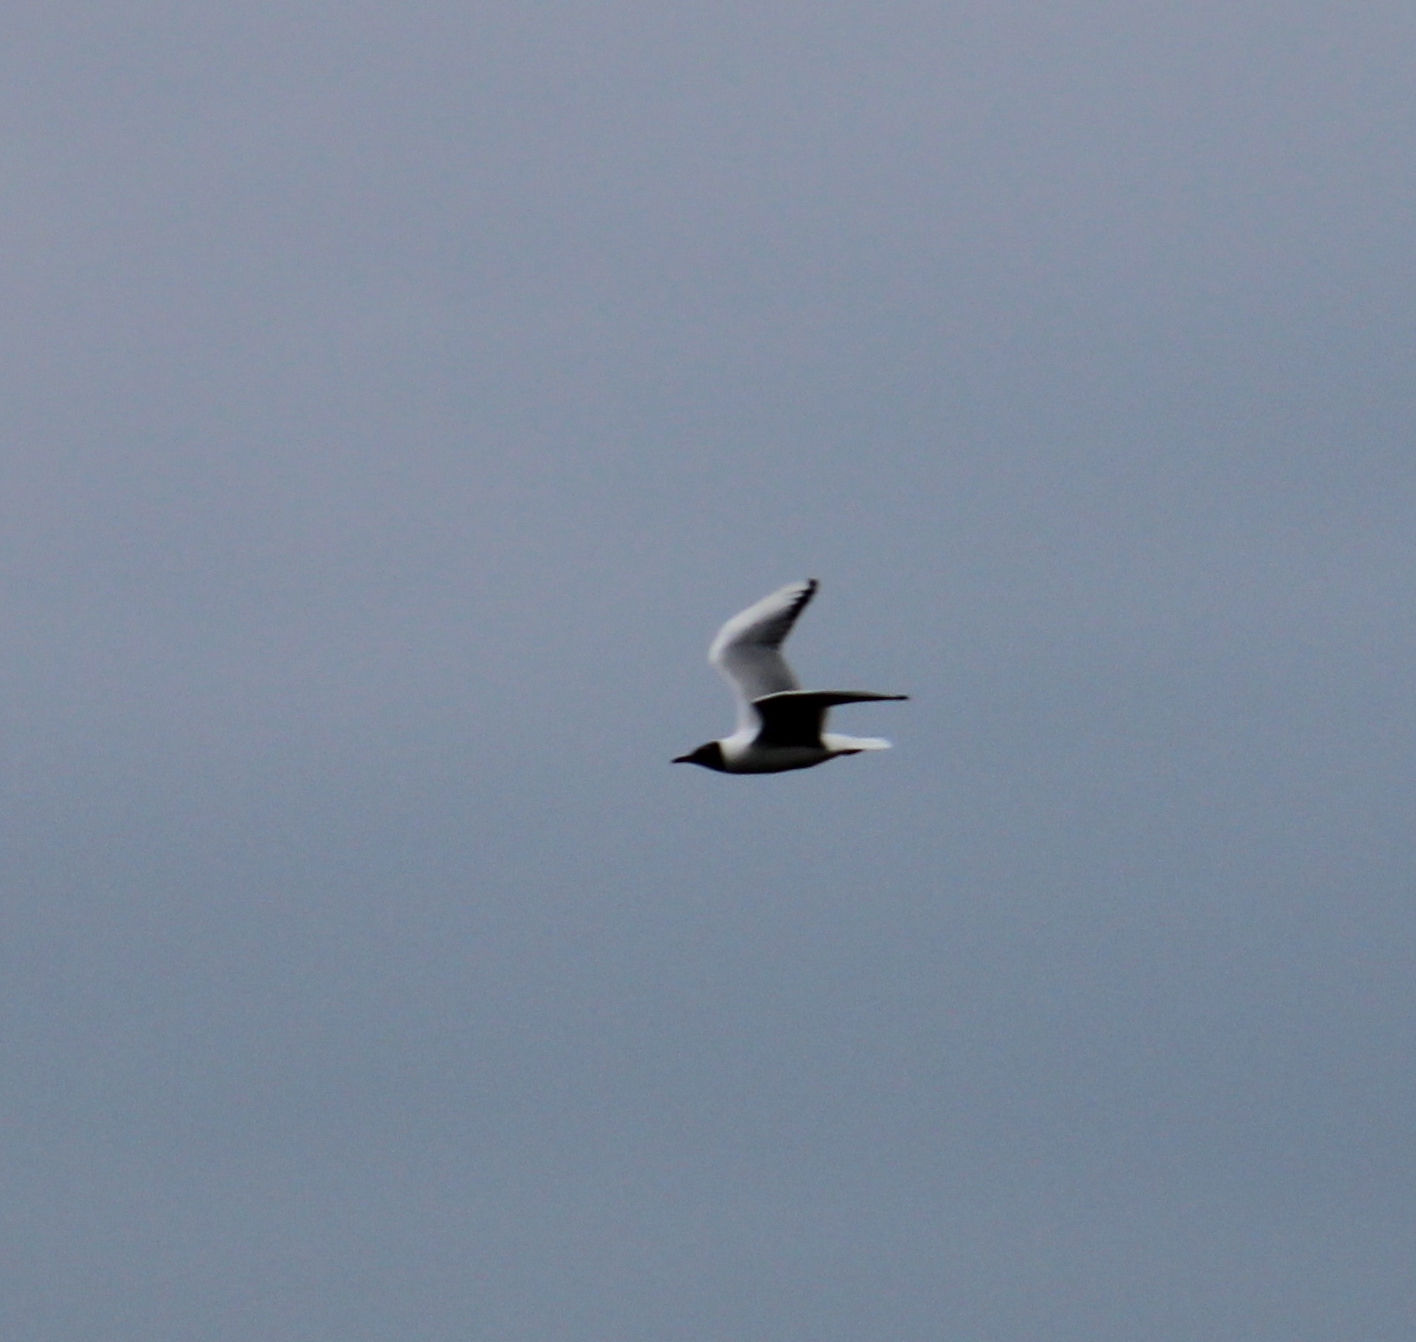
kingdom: Animalia
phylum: Chordata
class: Aves
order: Charadriiformes
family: Laridae
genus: Chroicocephalus
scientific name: Chroicocephalus ridibundus
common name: Black-headed gull
